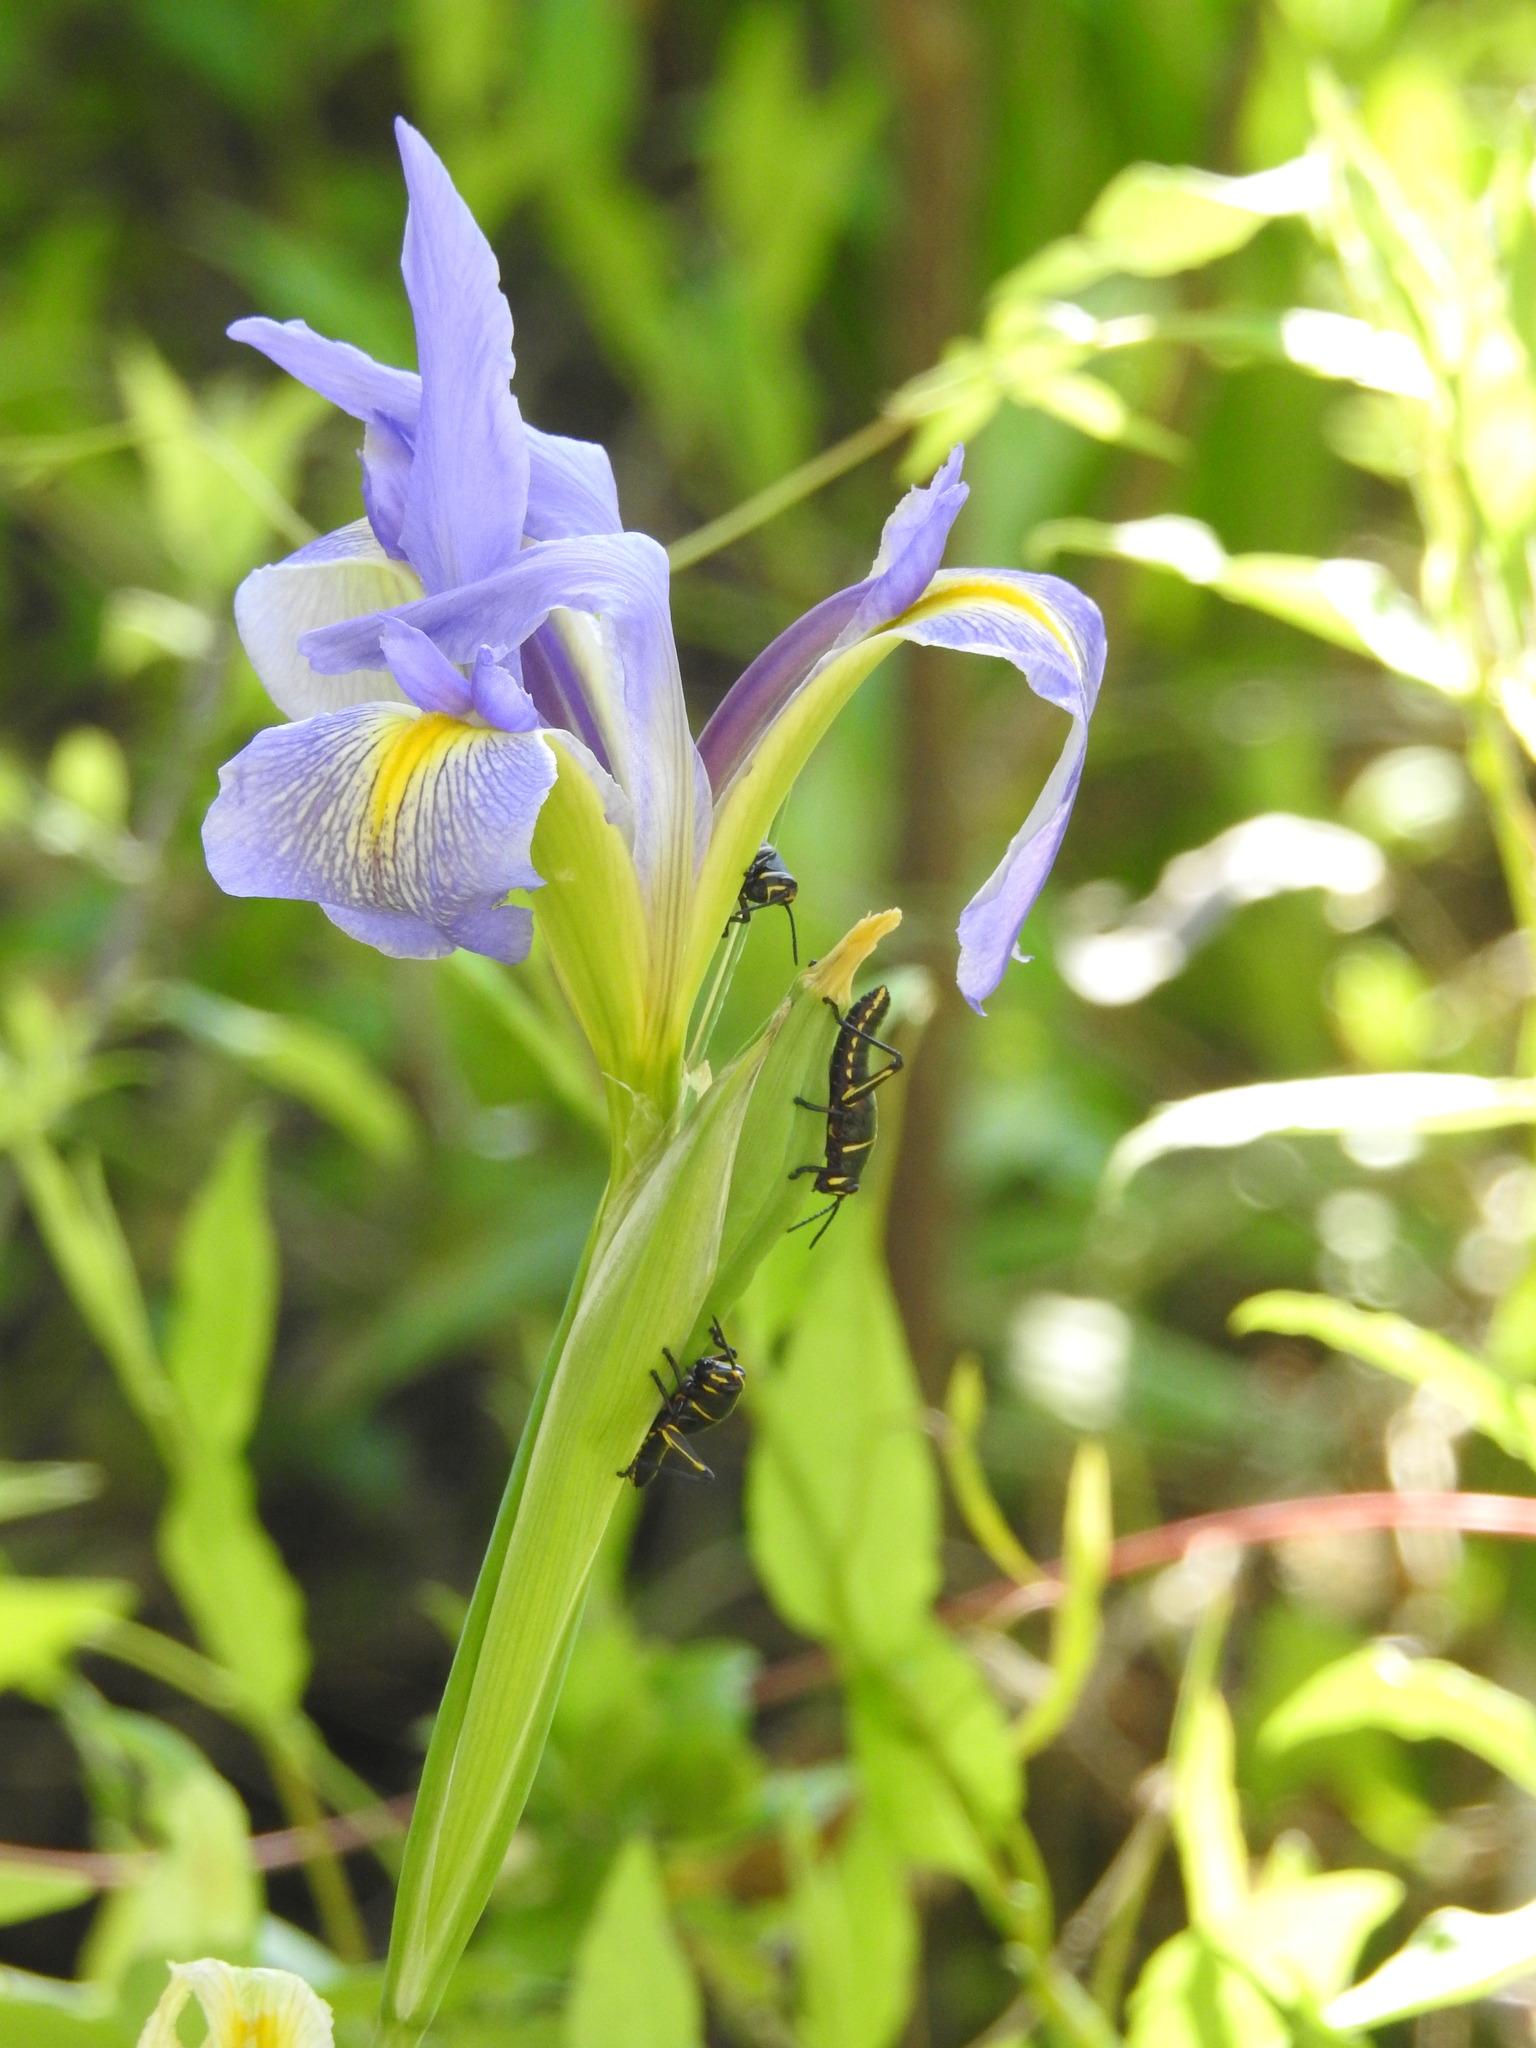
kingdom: Plantae
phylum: Tracheophyta
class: Liliopsida
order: Asparagales
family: Iridaceae
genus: Iris
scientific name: Iris savannarum
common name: Prairie iris
